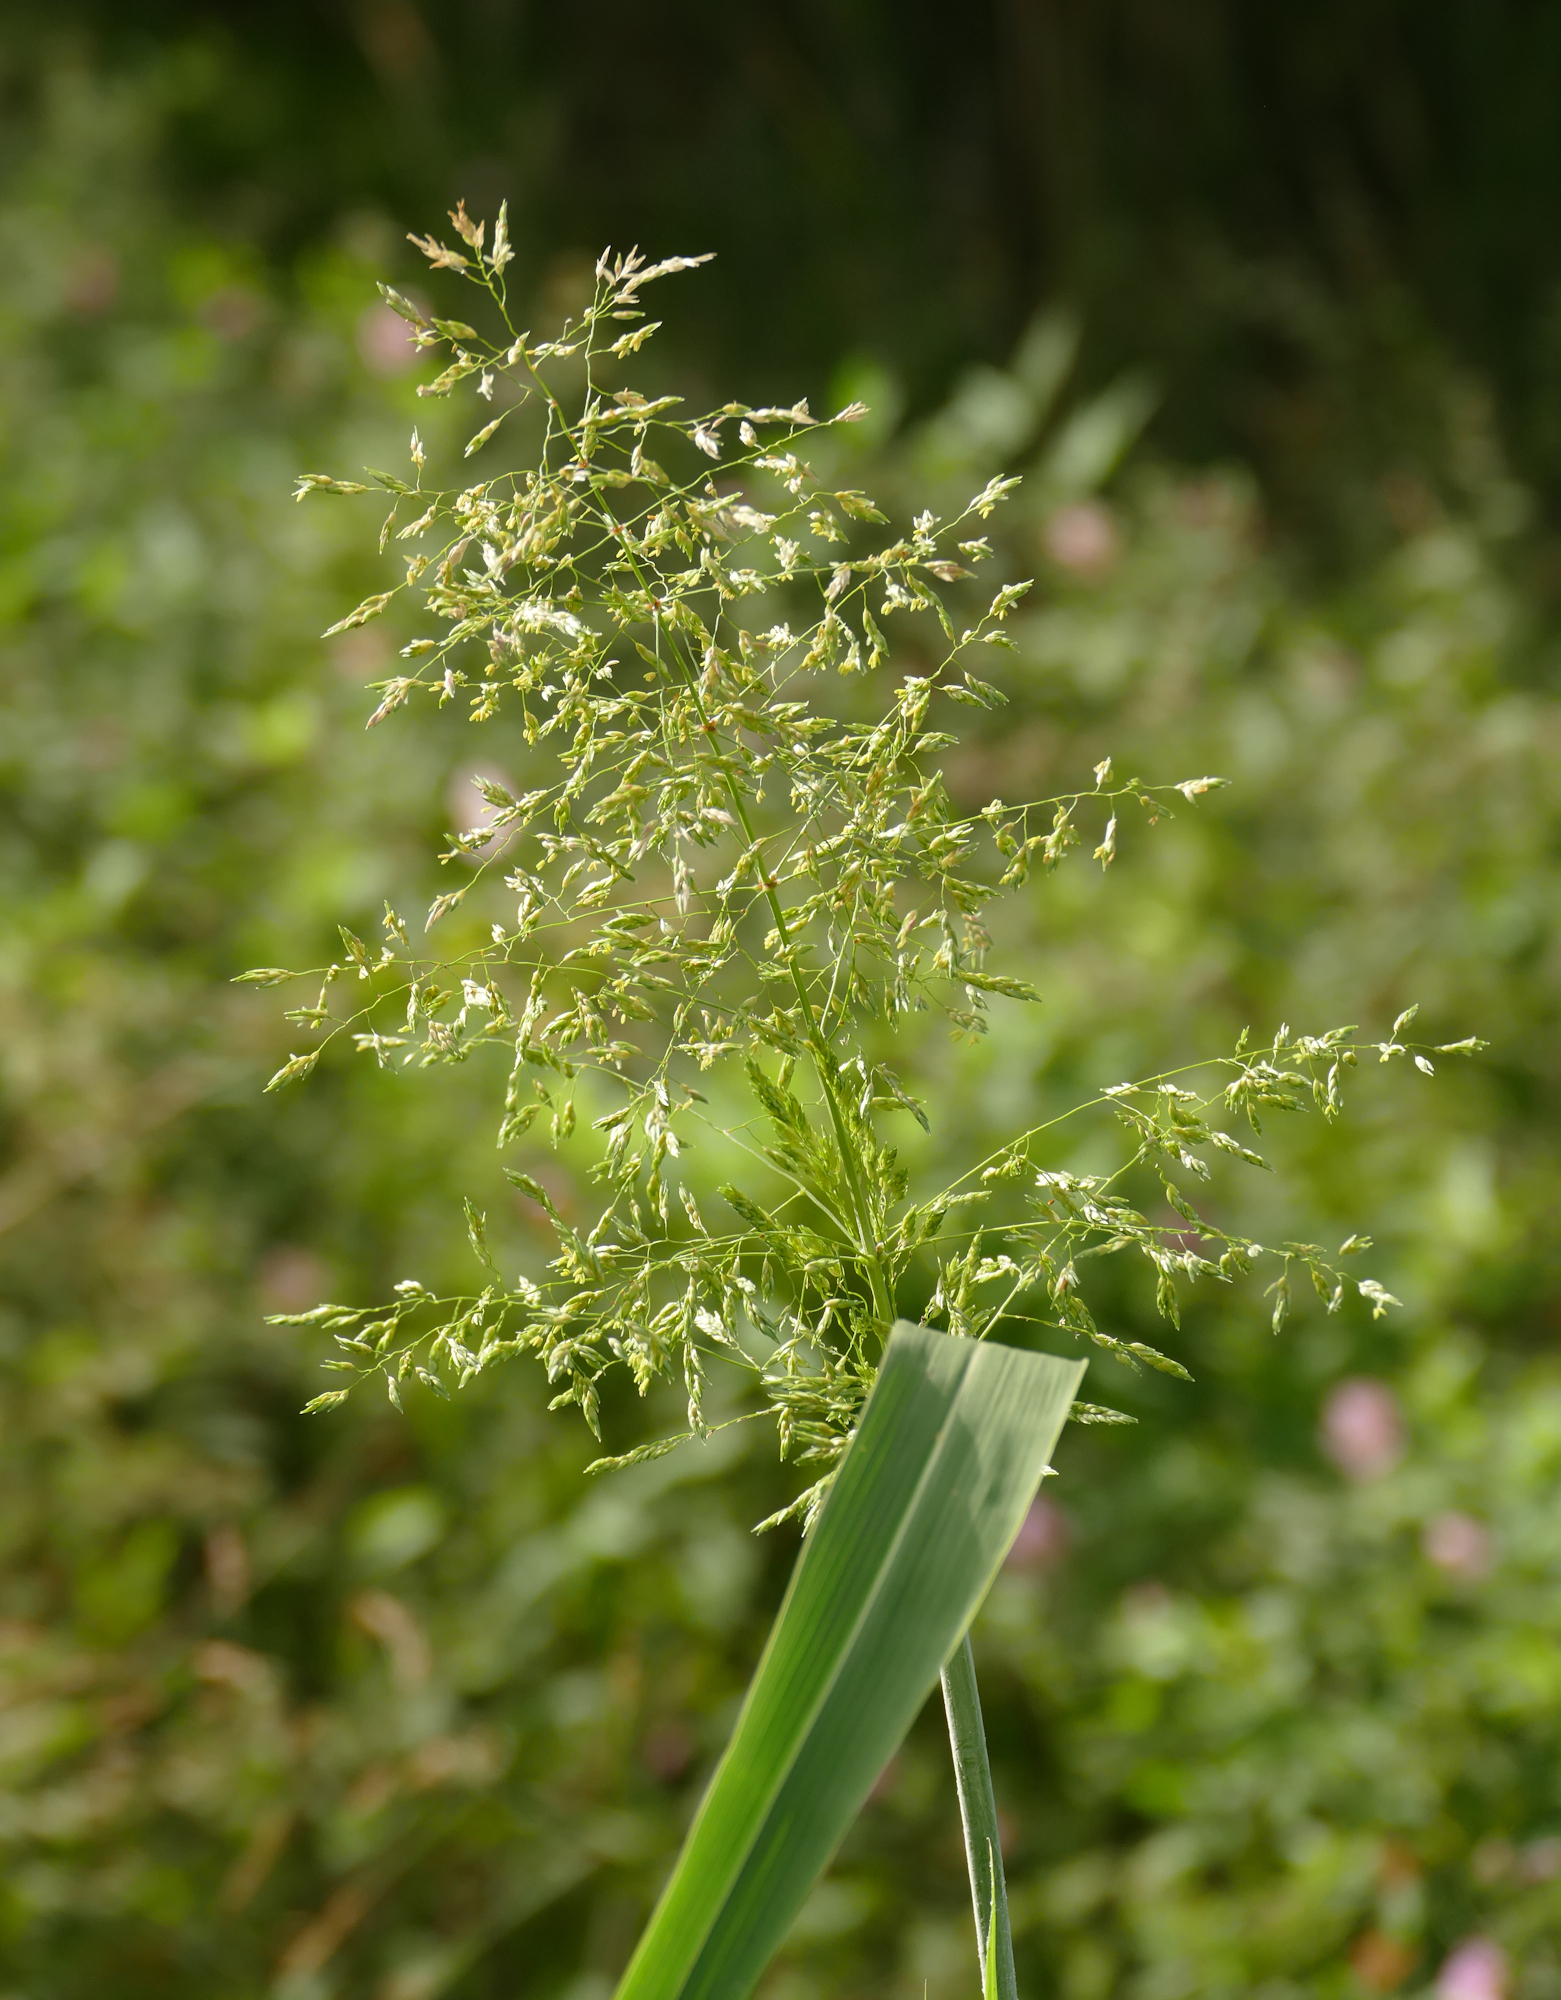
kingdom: Plantae
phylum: Tracheophyta
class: Liliopsida
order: Poales
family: Poaceae
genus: Sorghum
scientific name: Sorghum halepense
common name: Johnson-grass
